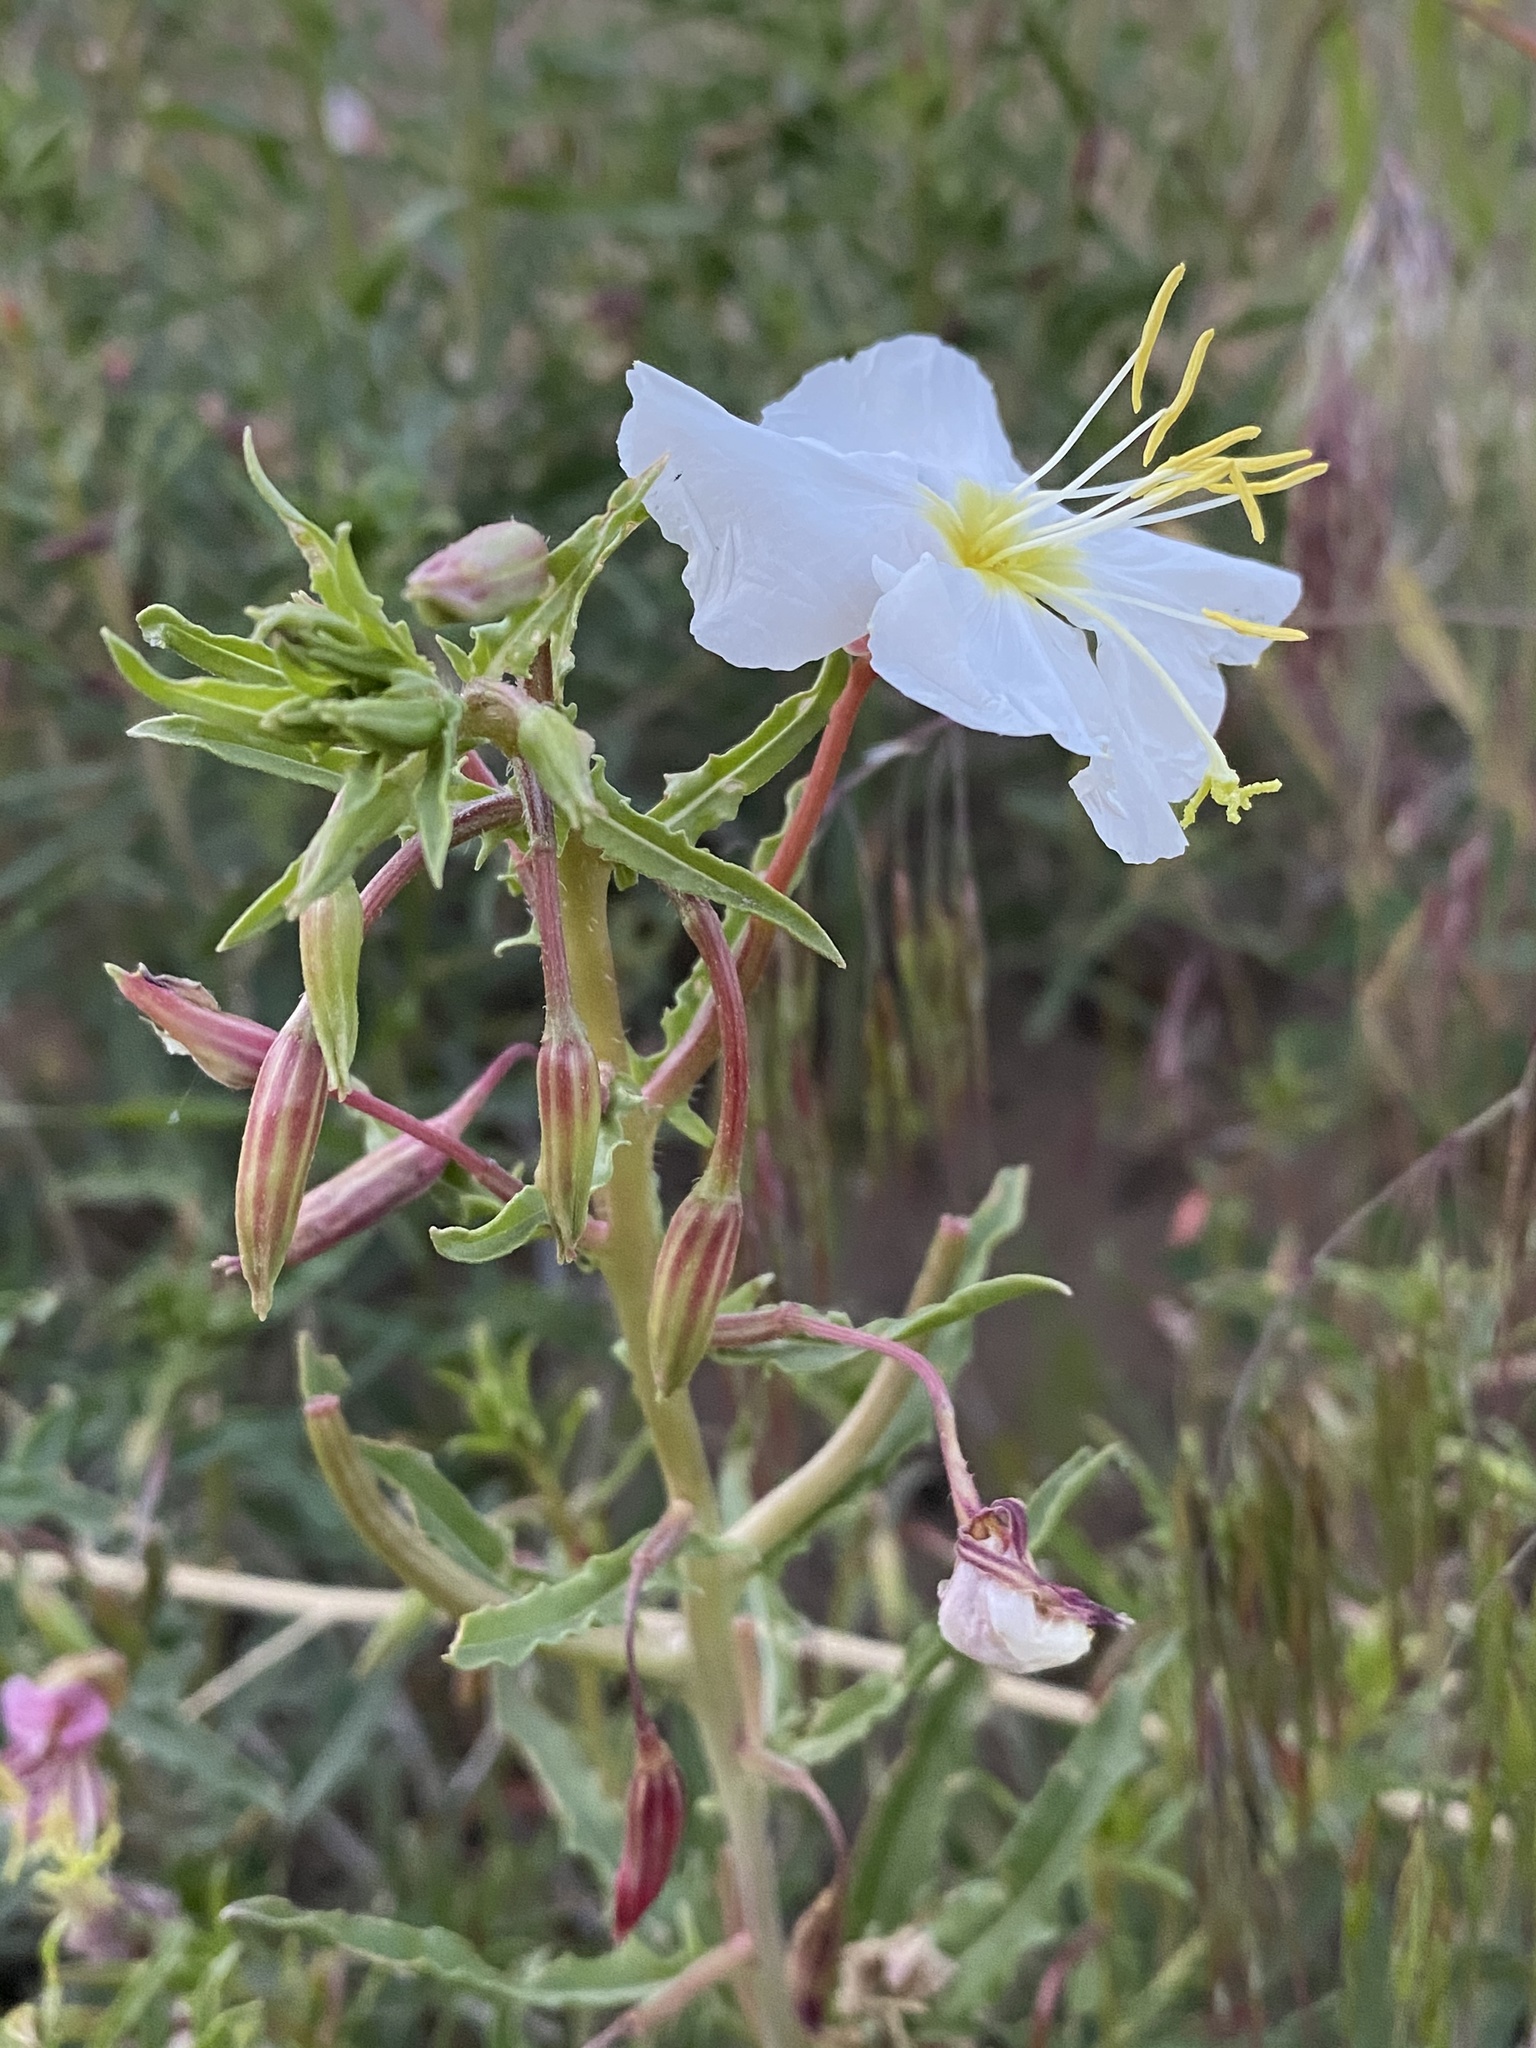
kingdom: Plantae
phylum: Tracheophyta
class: Magnoliopsida
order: Myrtales
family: Onagraceae
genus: Oenothera
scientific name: Oenothera pallida
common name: Pale evening-primrose
